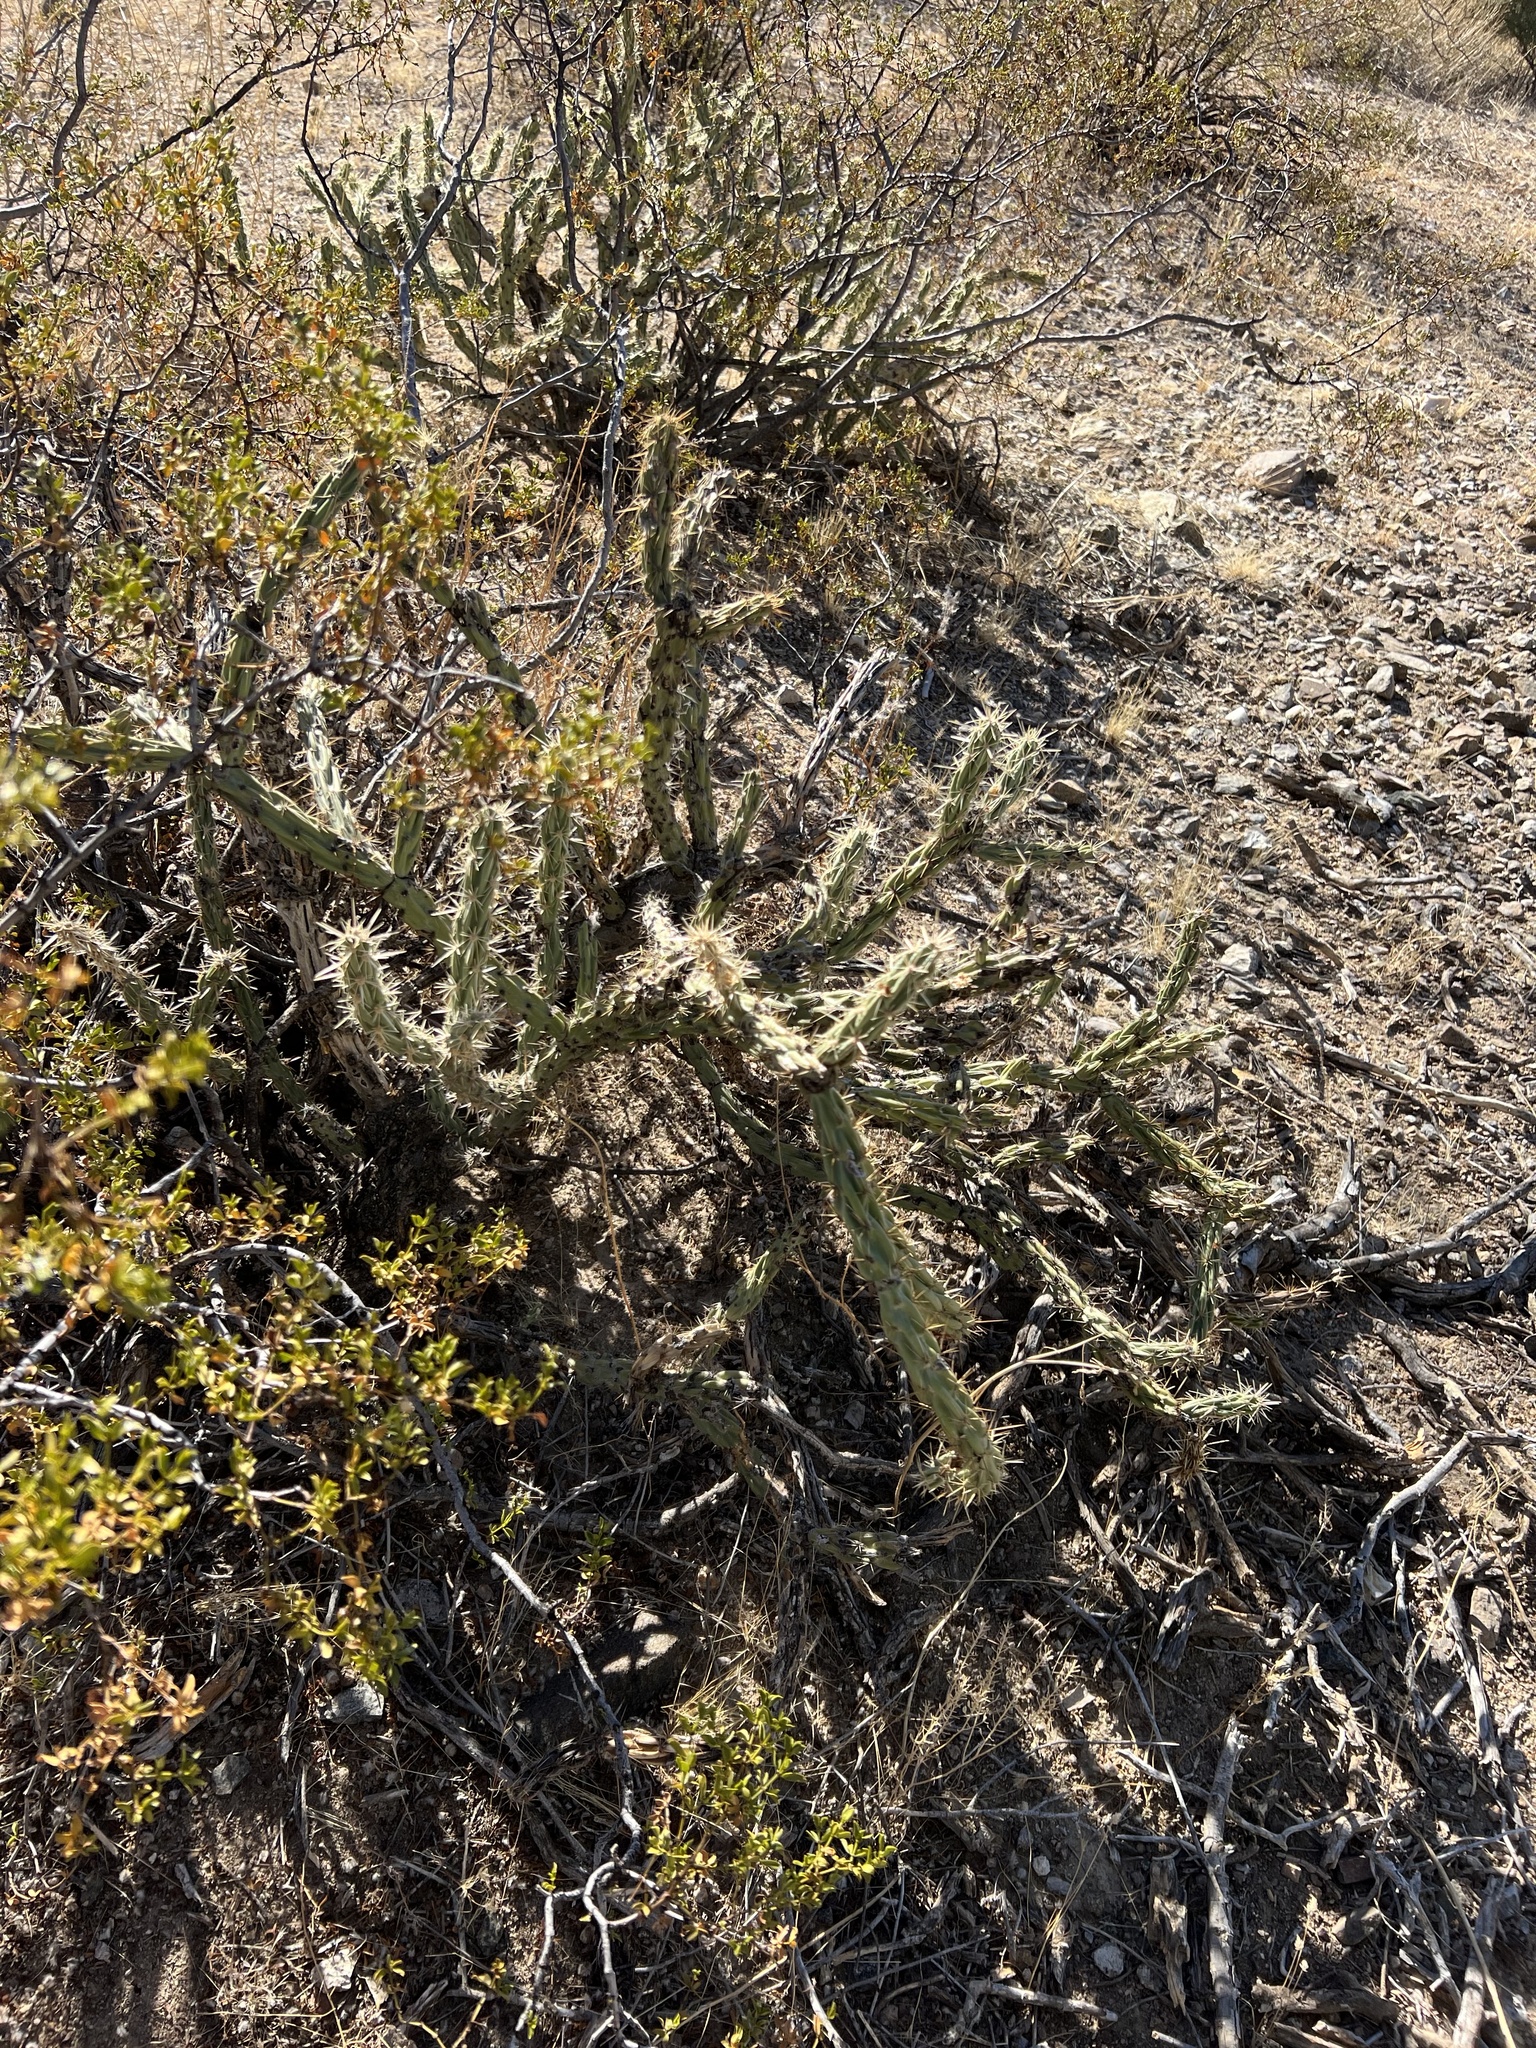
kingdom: Plantae
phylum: Tracheophyta
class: Magnoliopsida
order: Caryophyllales
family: Cactaceae
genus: Cylindropuntia
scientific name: Cylindropuntia acanthocarpa
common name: Buckhorn cholla
